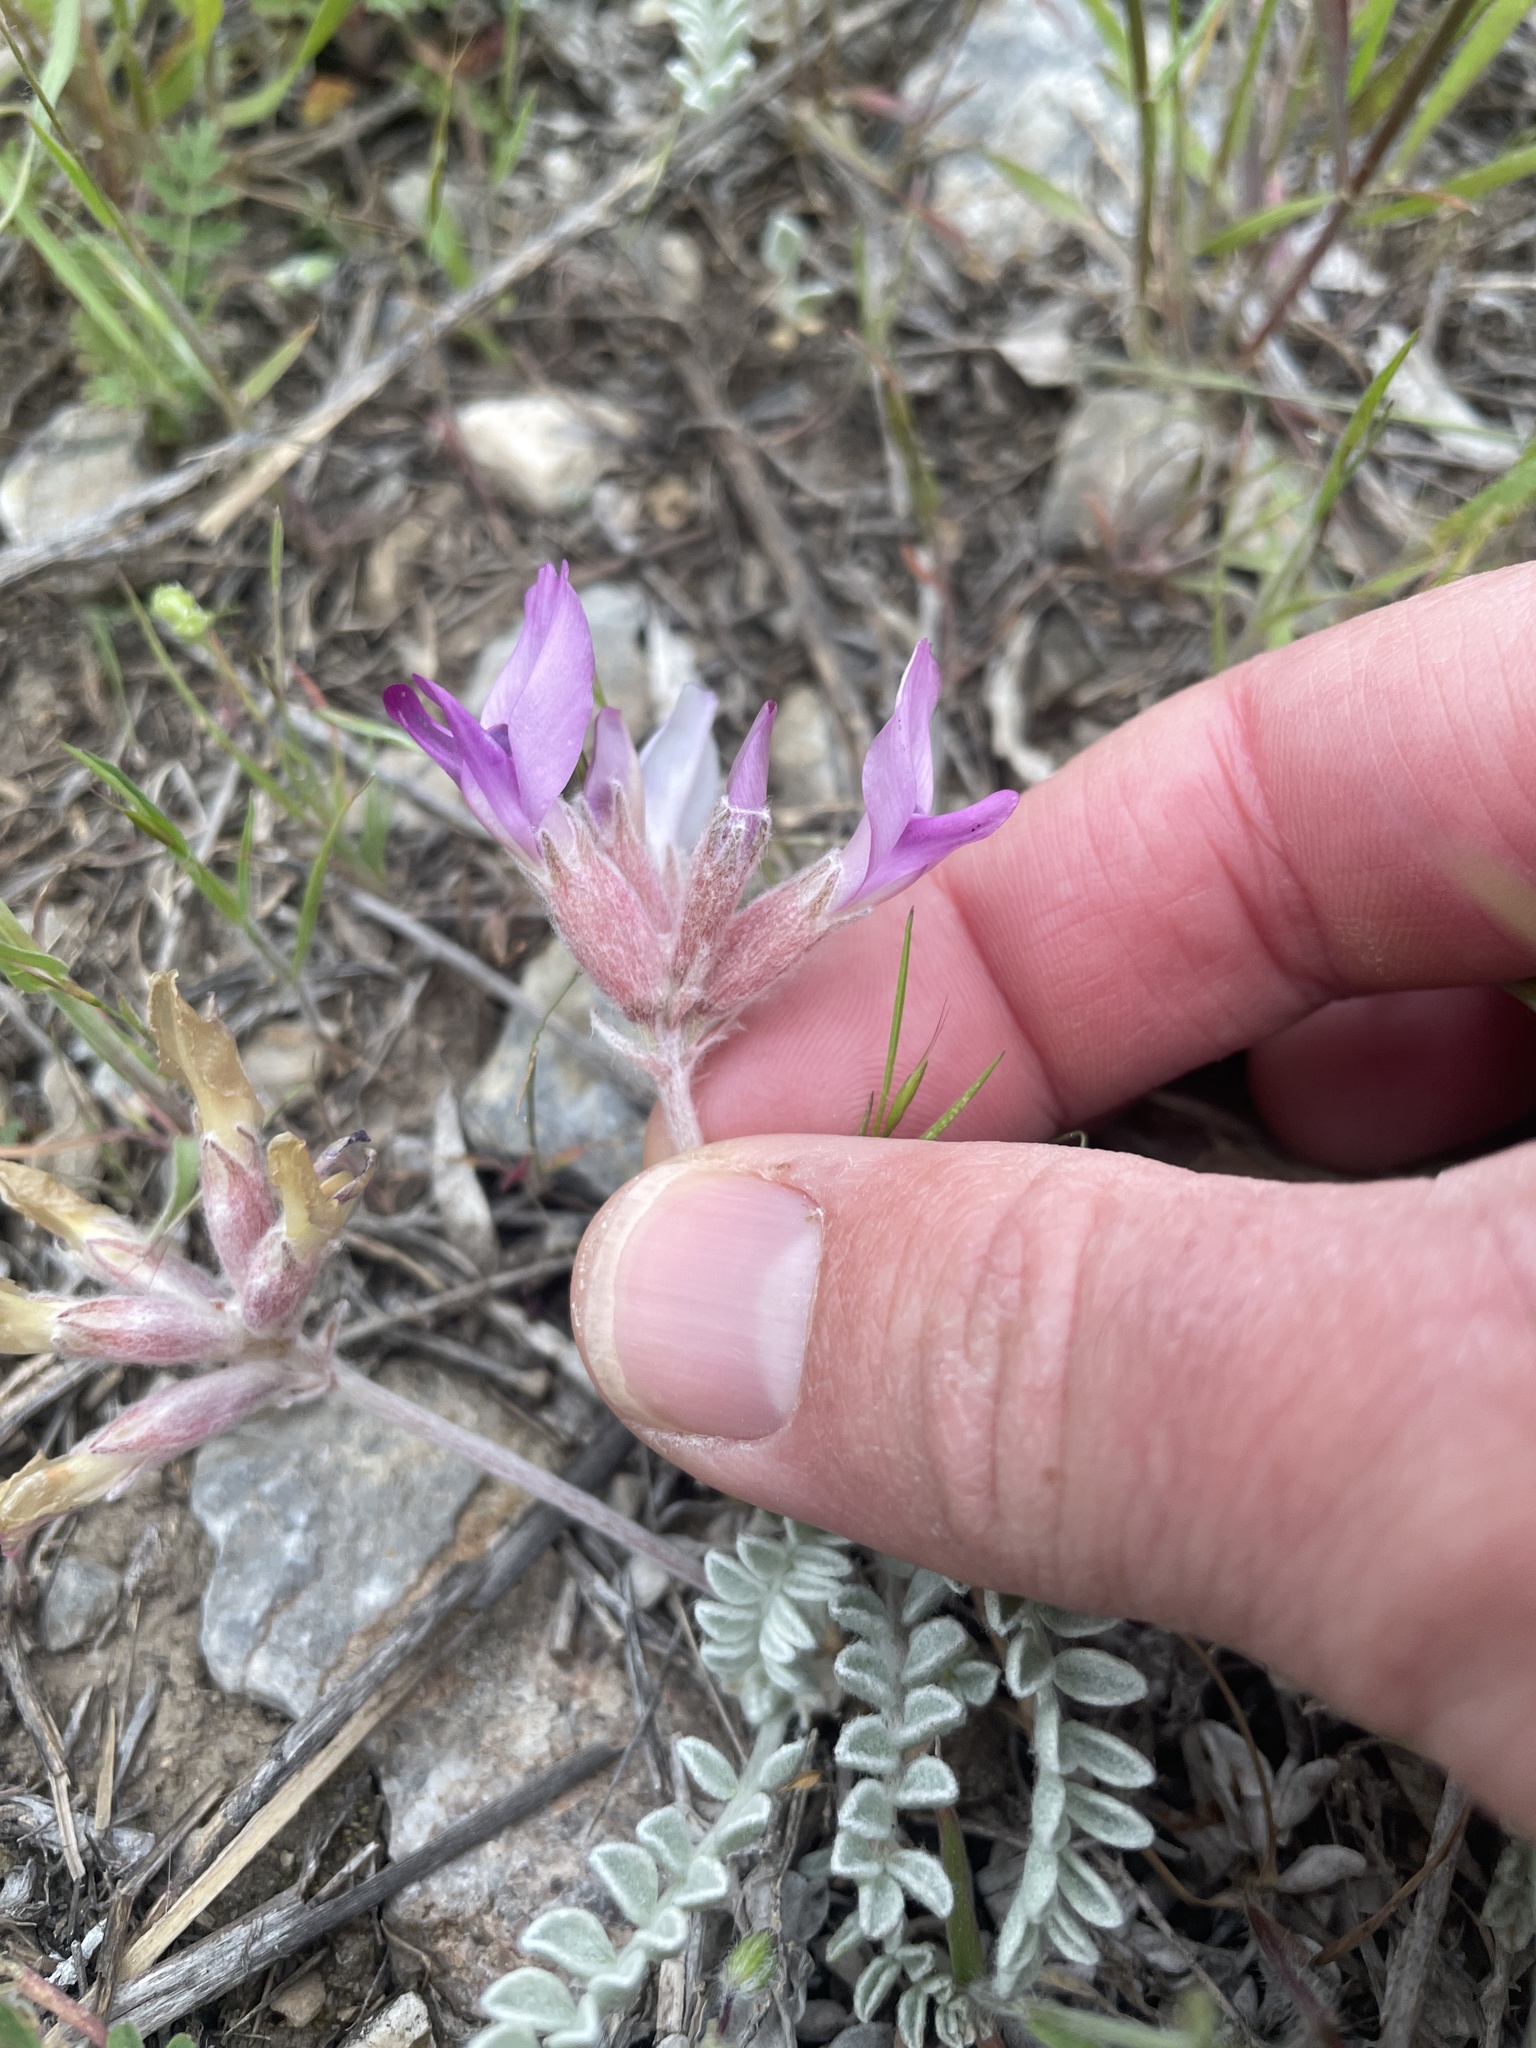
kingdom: Plantae
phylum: Tracheophyta
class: Magnoliopsida
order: Fabales
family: Fabaceae
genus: Astragalus
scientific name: Astragalus utahensis
